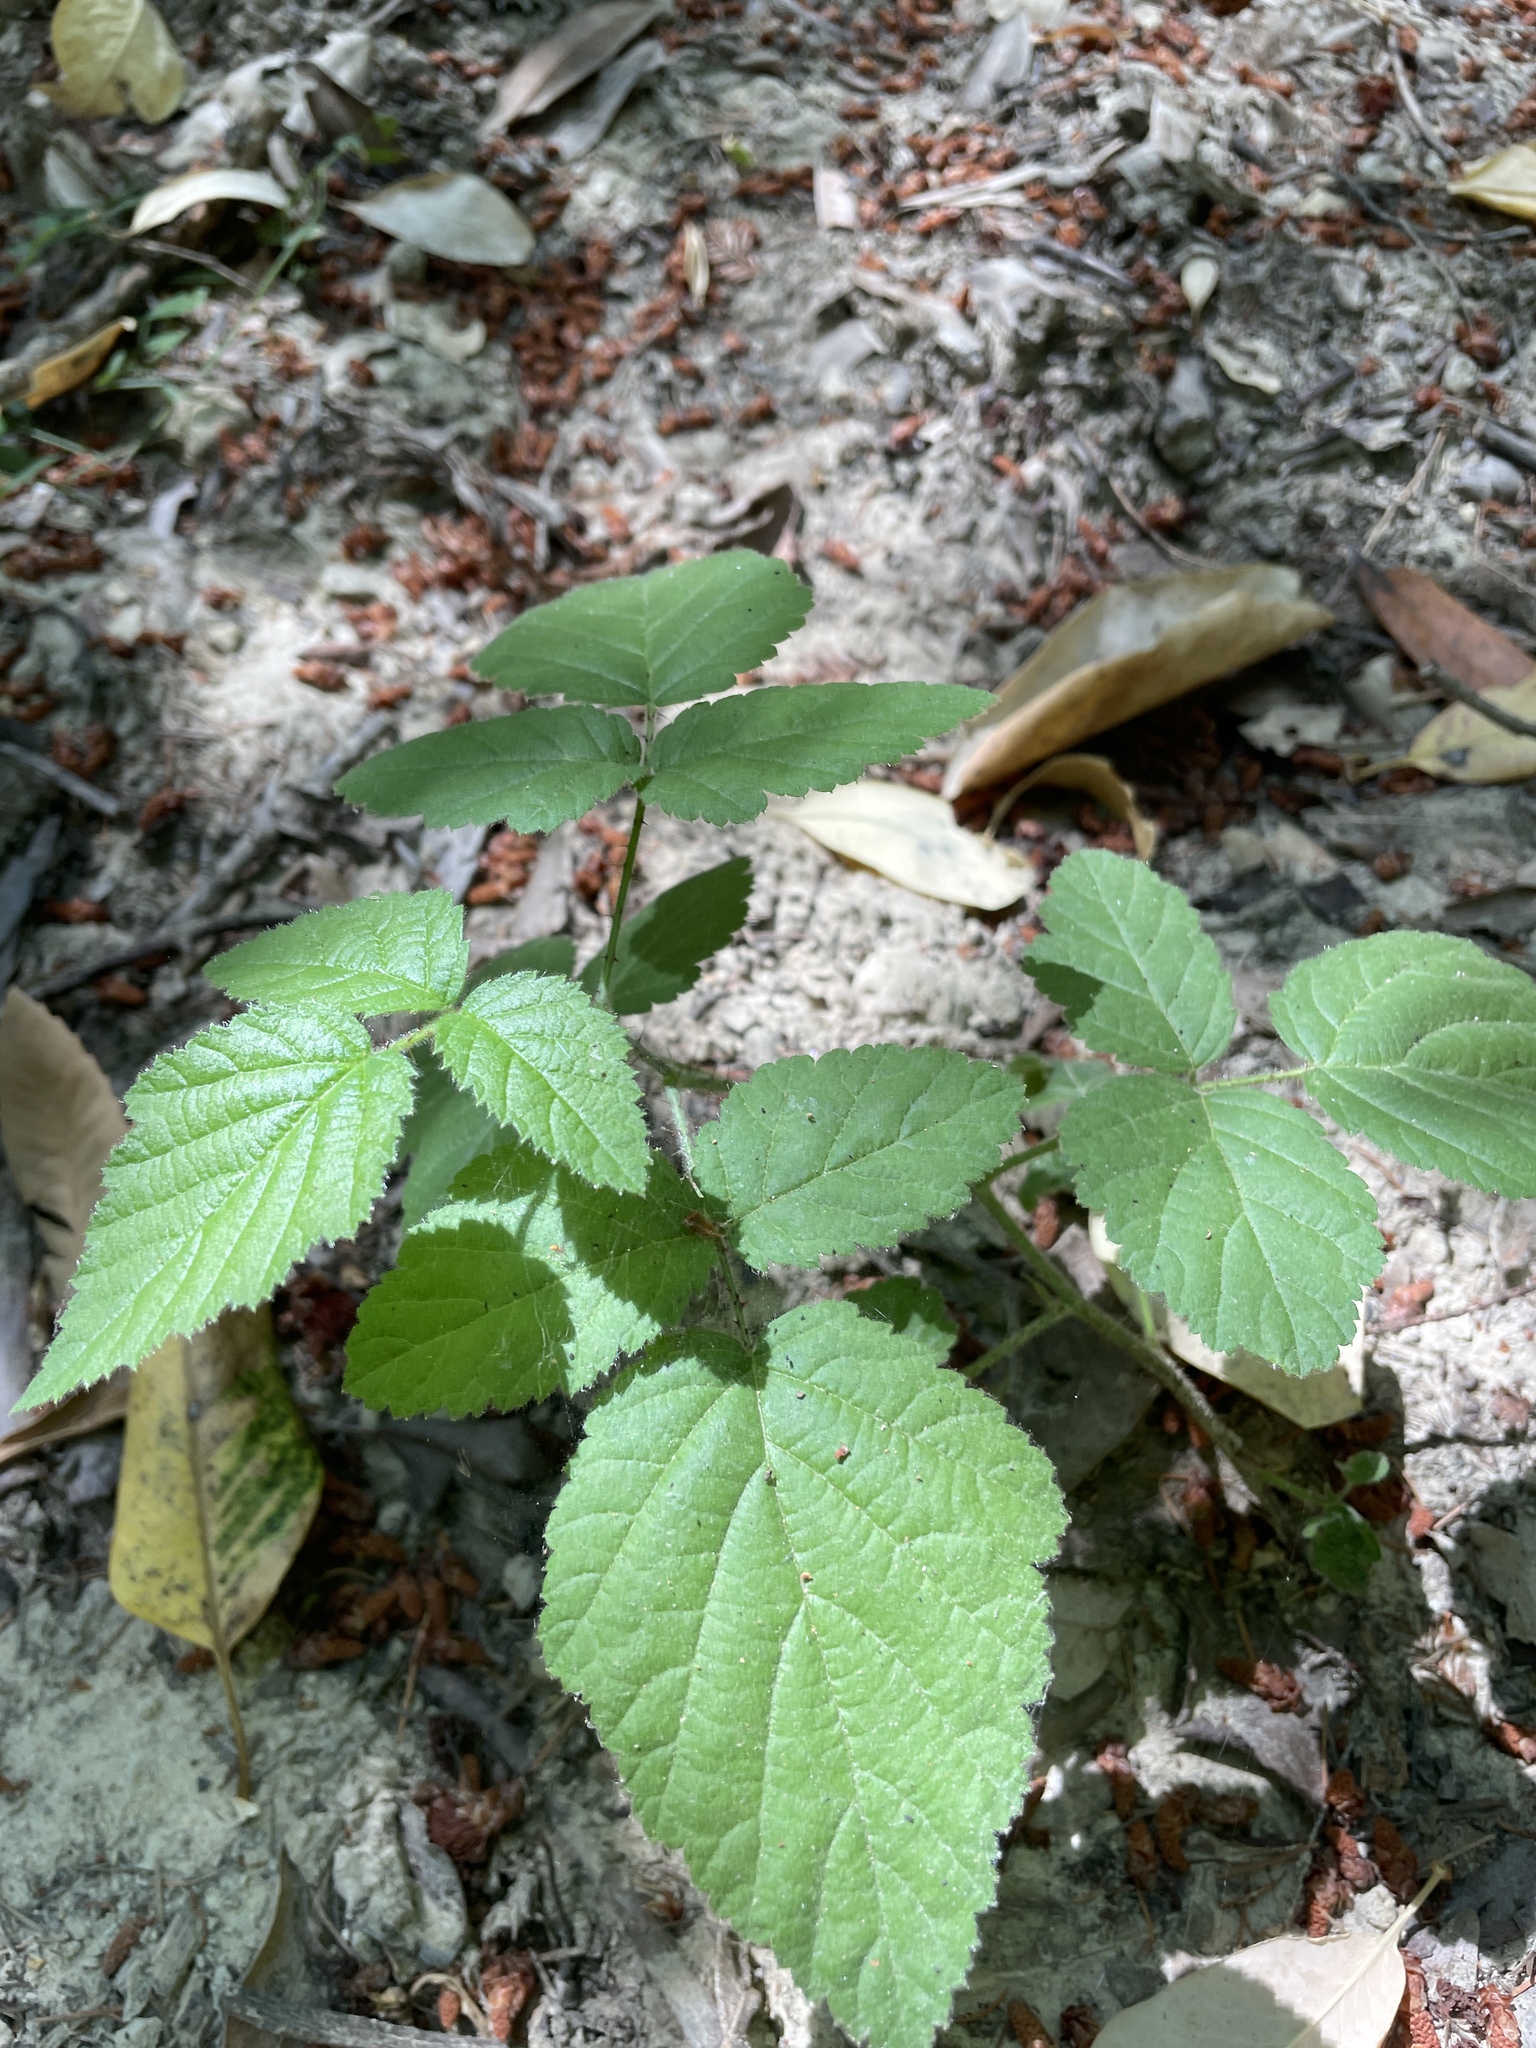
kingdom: Plantae
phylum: Tracheophyta
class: Magnoliopsida
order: Rosales
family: Rosaceae
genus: Rubus
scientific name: Rubus ursinus
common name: Pacific blackberry
